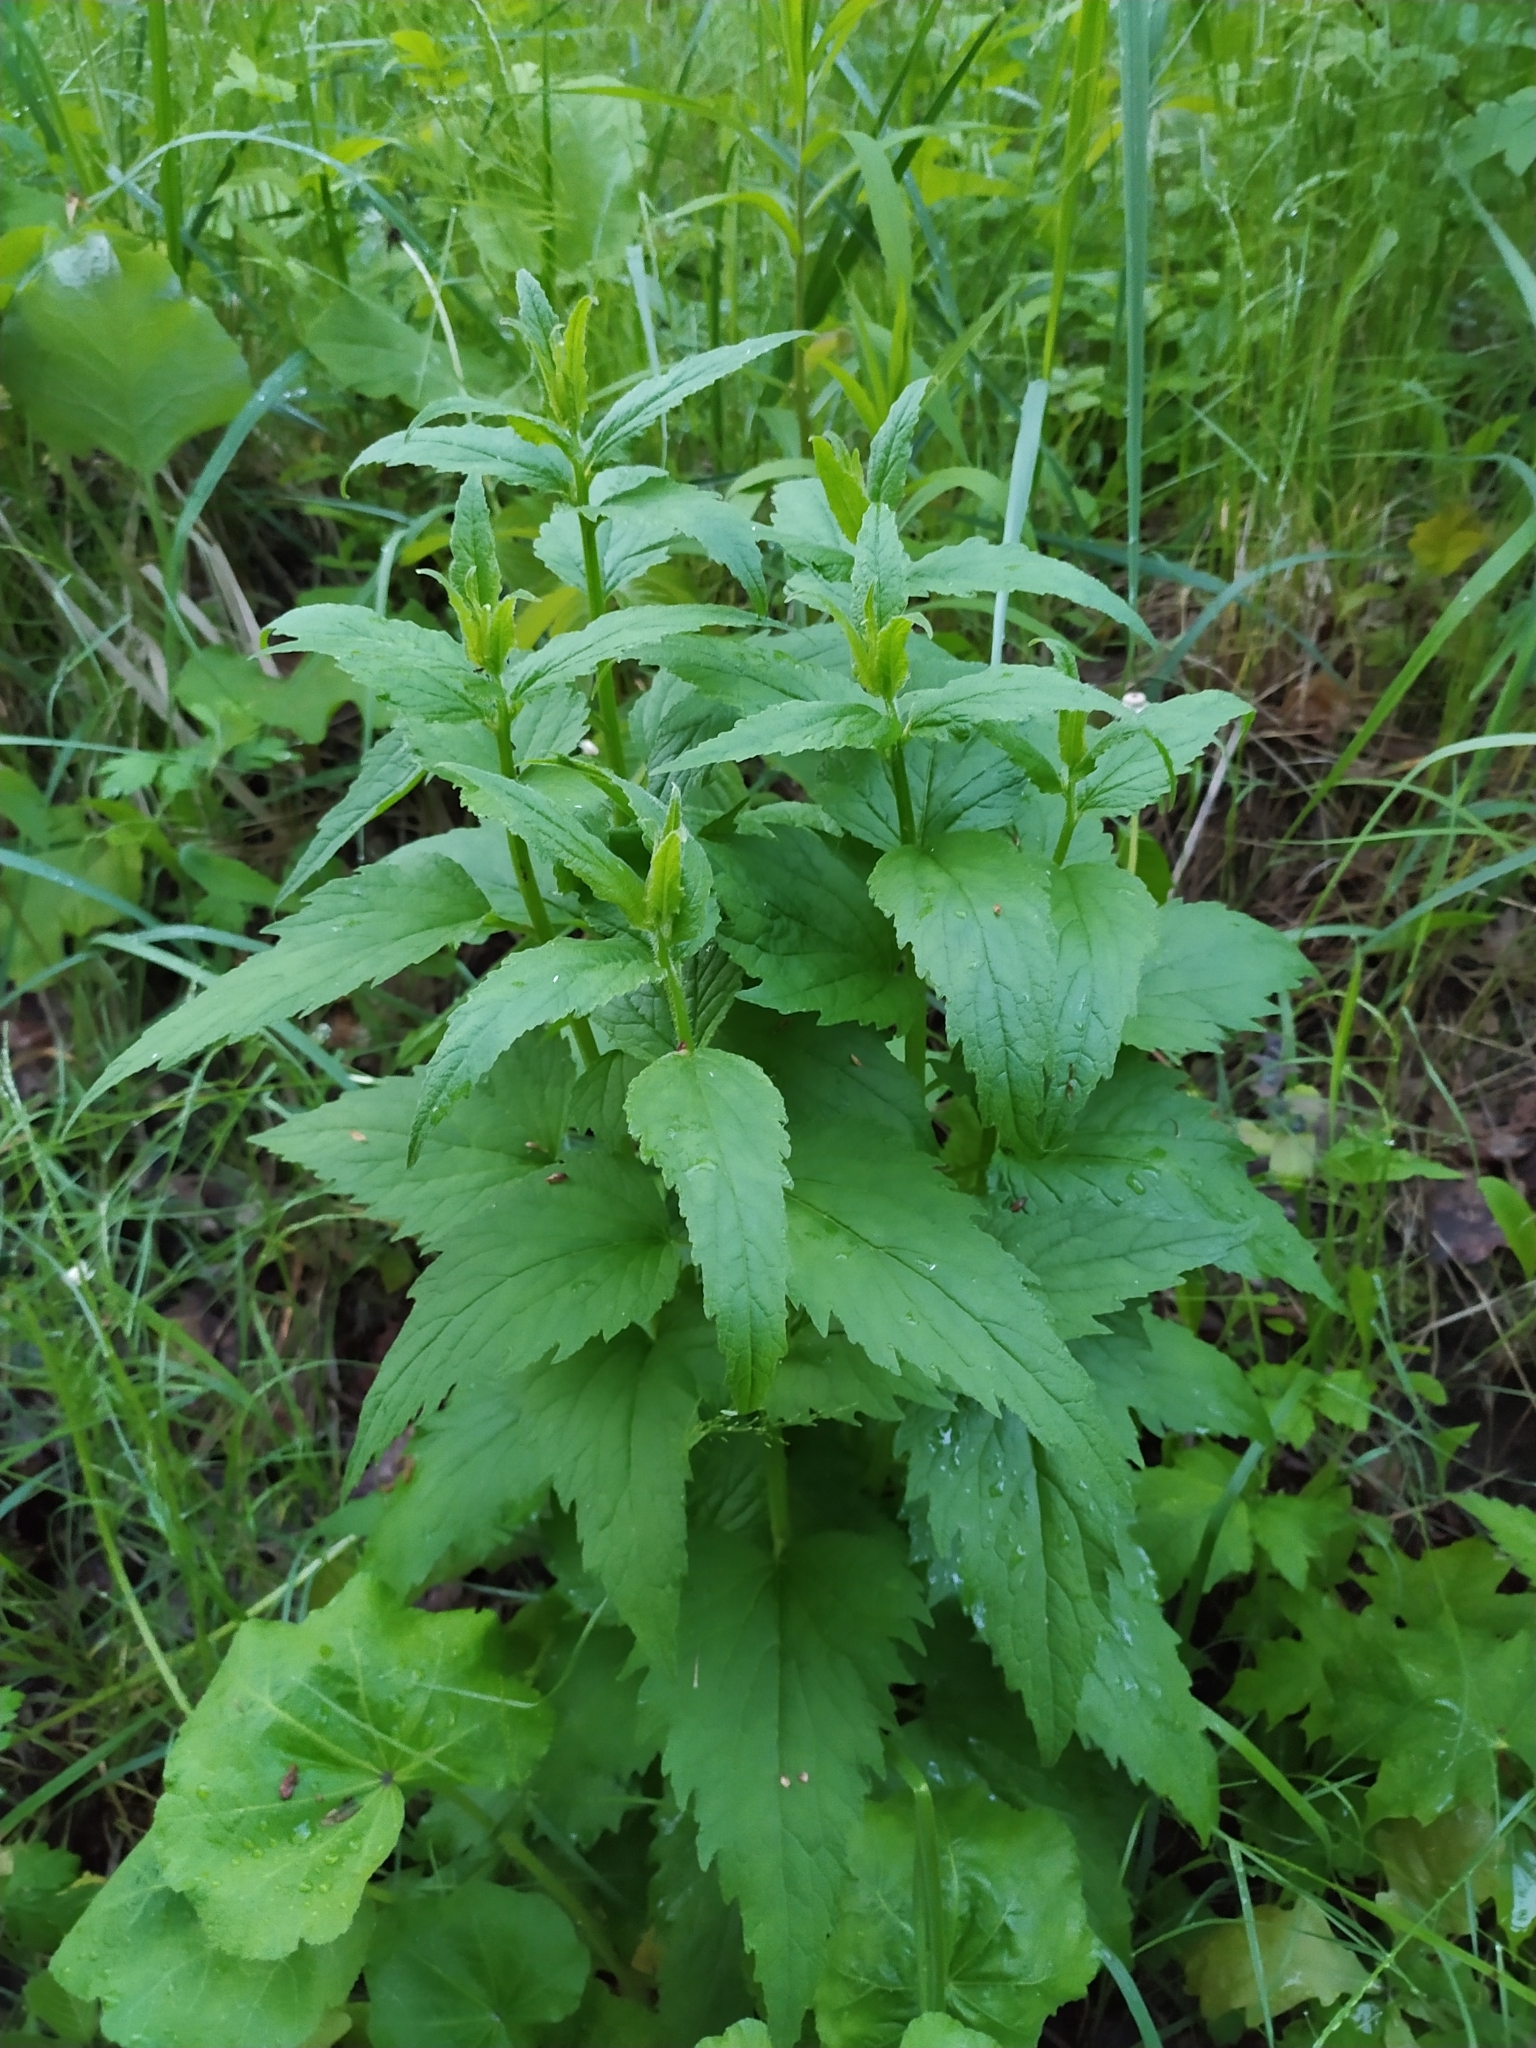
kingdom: Plantae
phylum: Tracheophyta
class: Magnoliopsida
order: Asterales
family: Campanulaceae
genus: Campanula
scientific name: Campanula trachelium
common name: Nettle-leaved bellflower
